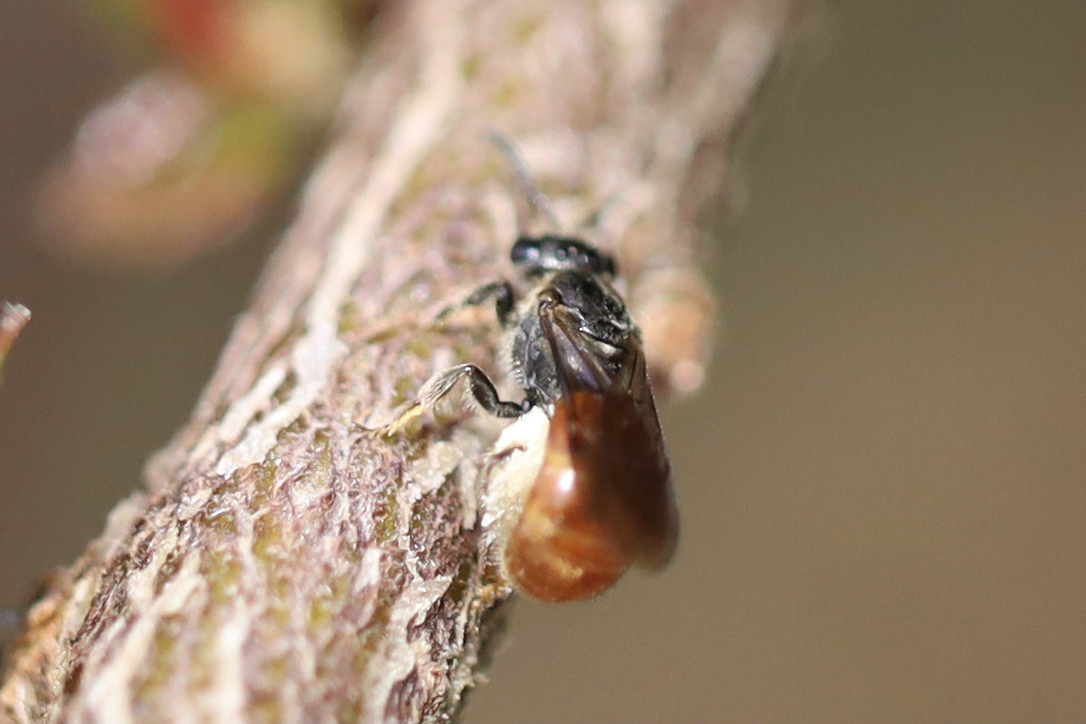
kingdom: Animalia
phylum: Arthropoda
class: Insecta
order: Hymenoptera
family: Halictidae
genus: Lasioglossum
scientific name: Lasioglossum ovaliceps
